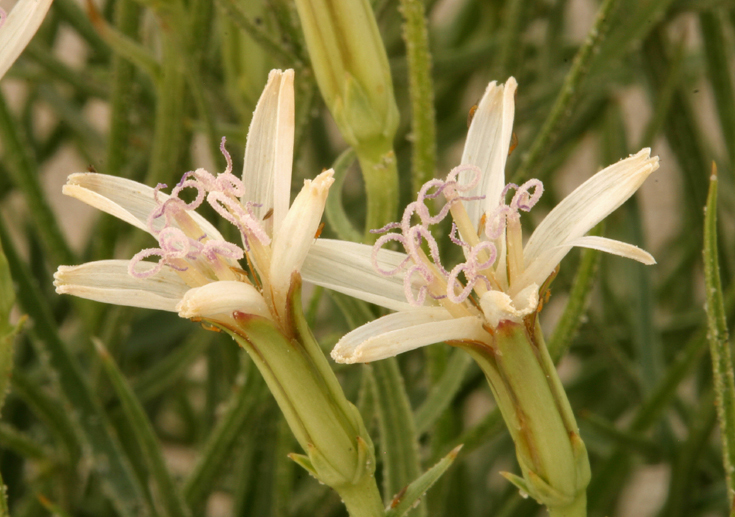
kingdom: Plantae
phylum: Tracheophyta
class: Magnoliopsida
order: Asterales
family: Asteraceae
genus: Chaetadelpha
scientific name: Chaetadelpha wheeleri
